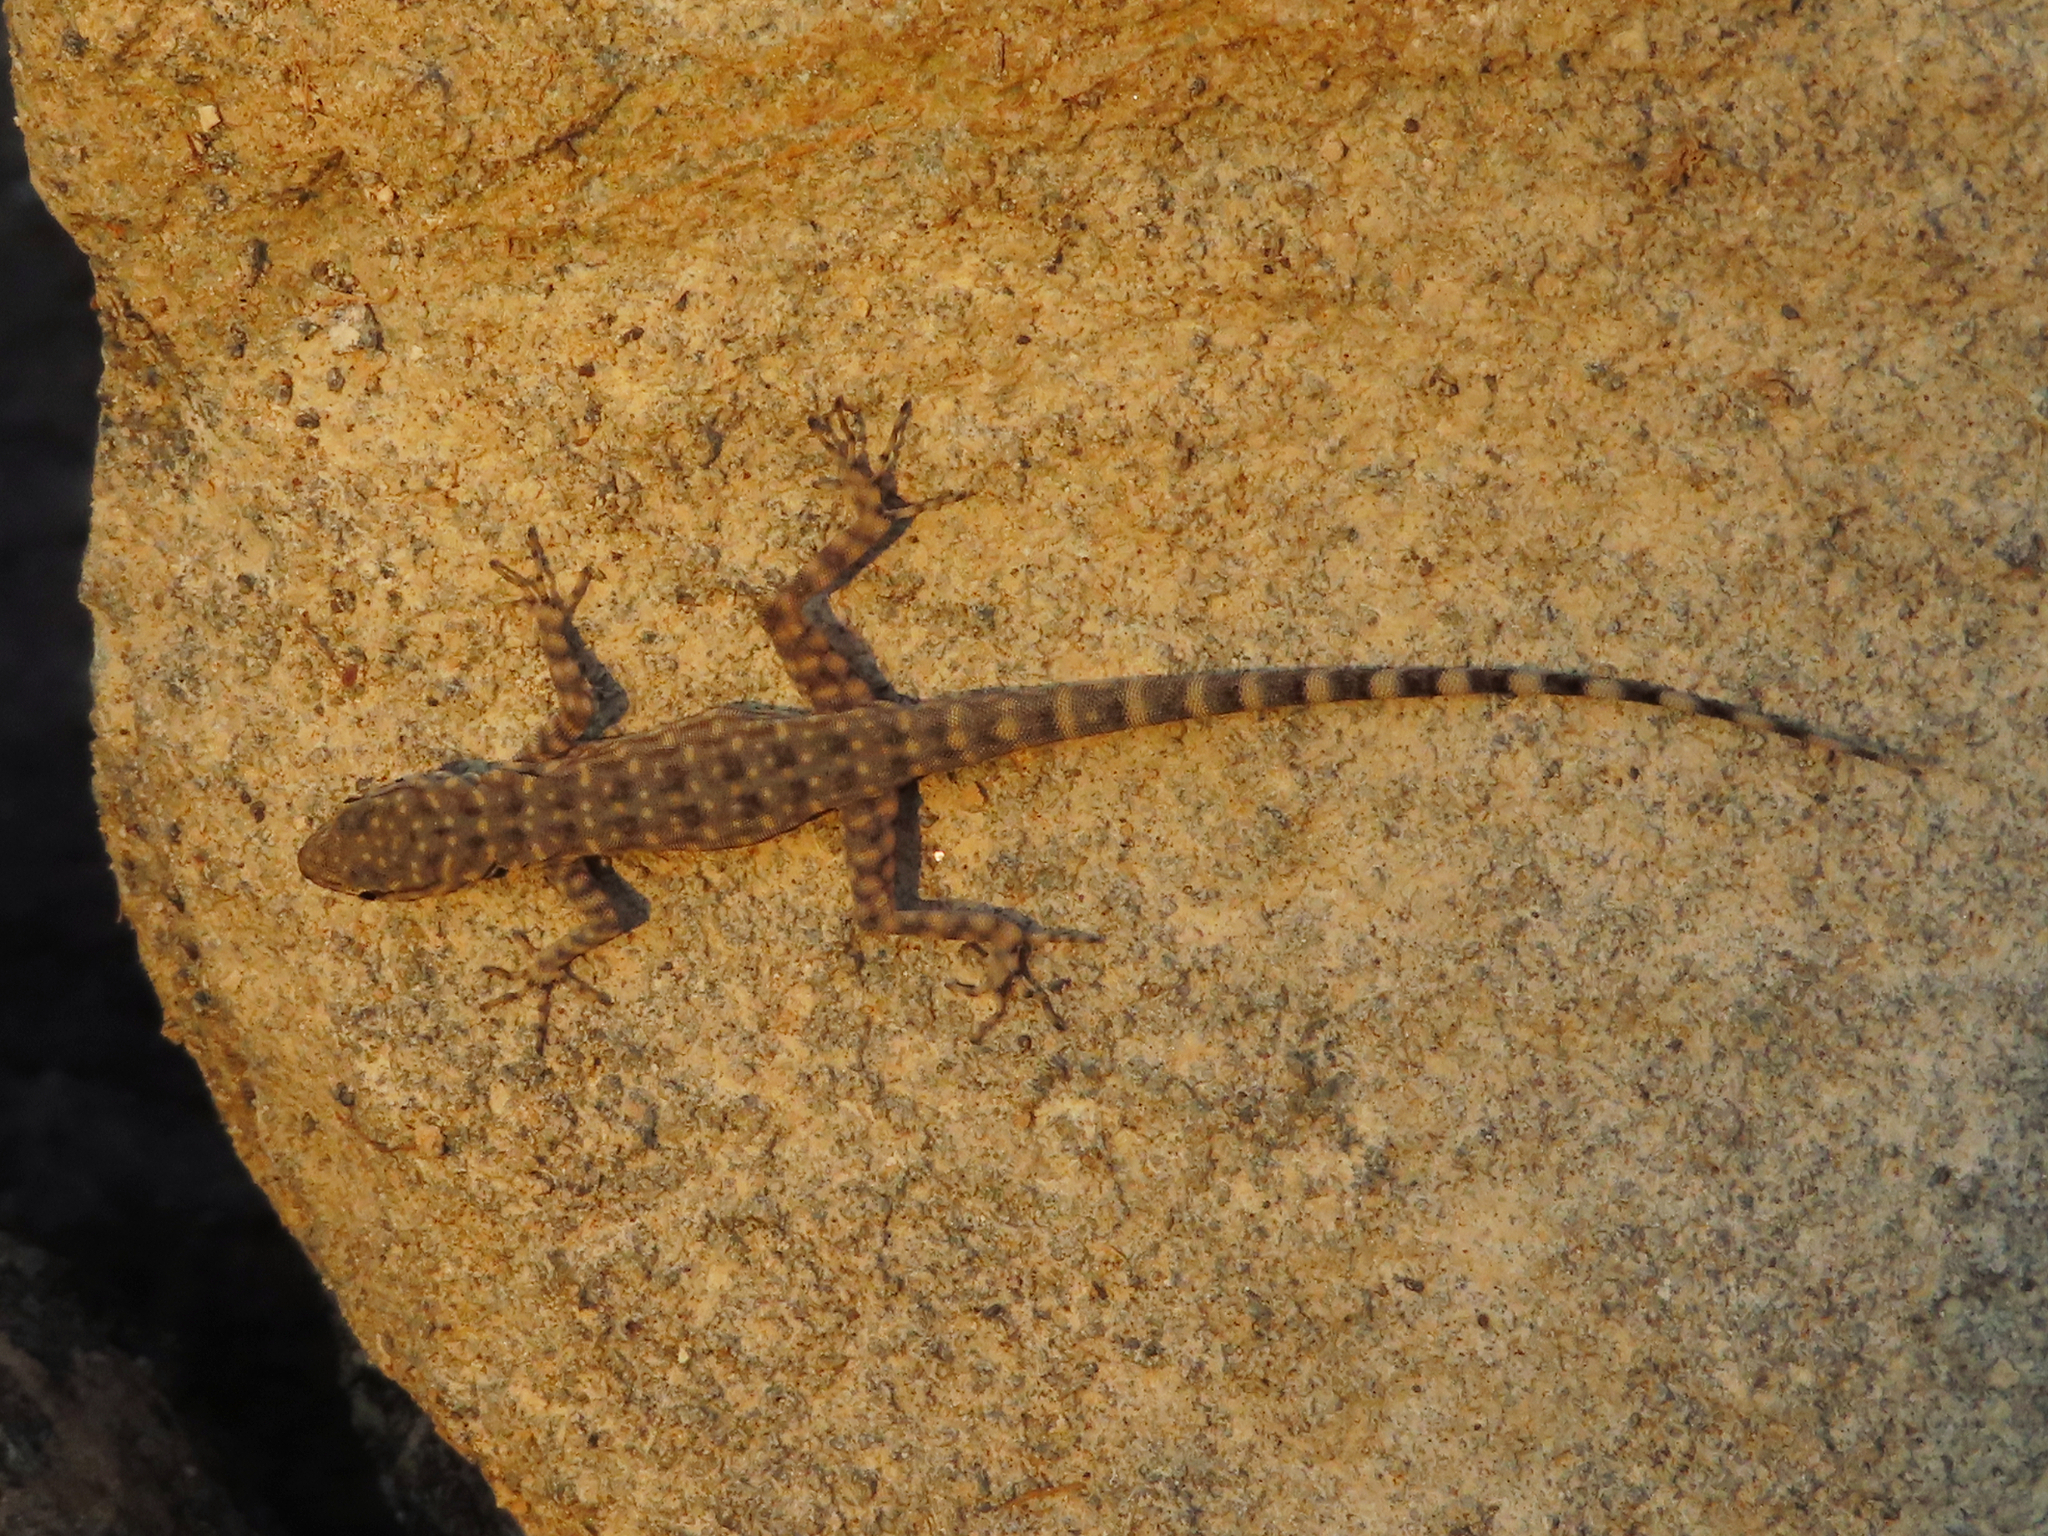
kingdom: Animalia
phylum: Chordata
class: Squamata
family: Sphaerodactylidae
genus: Pristurus
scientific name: Pristurus celerrimus
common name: Bar-tailed semaphore gecko
